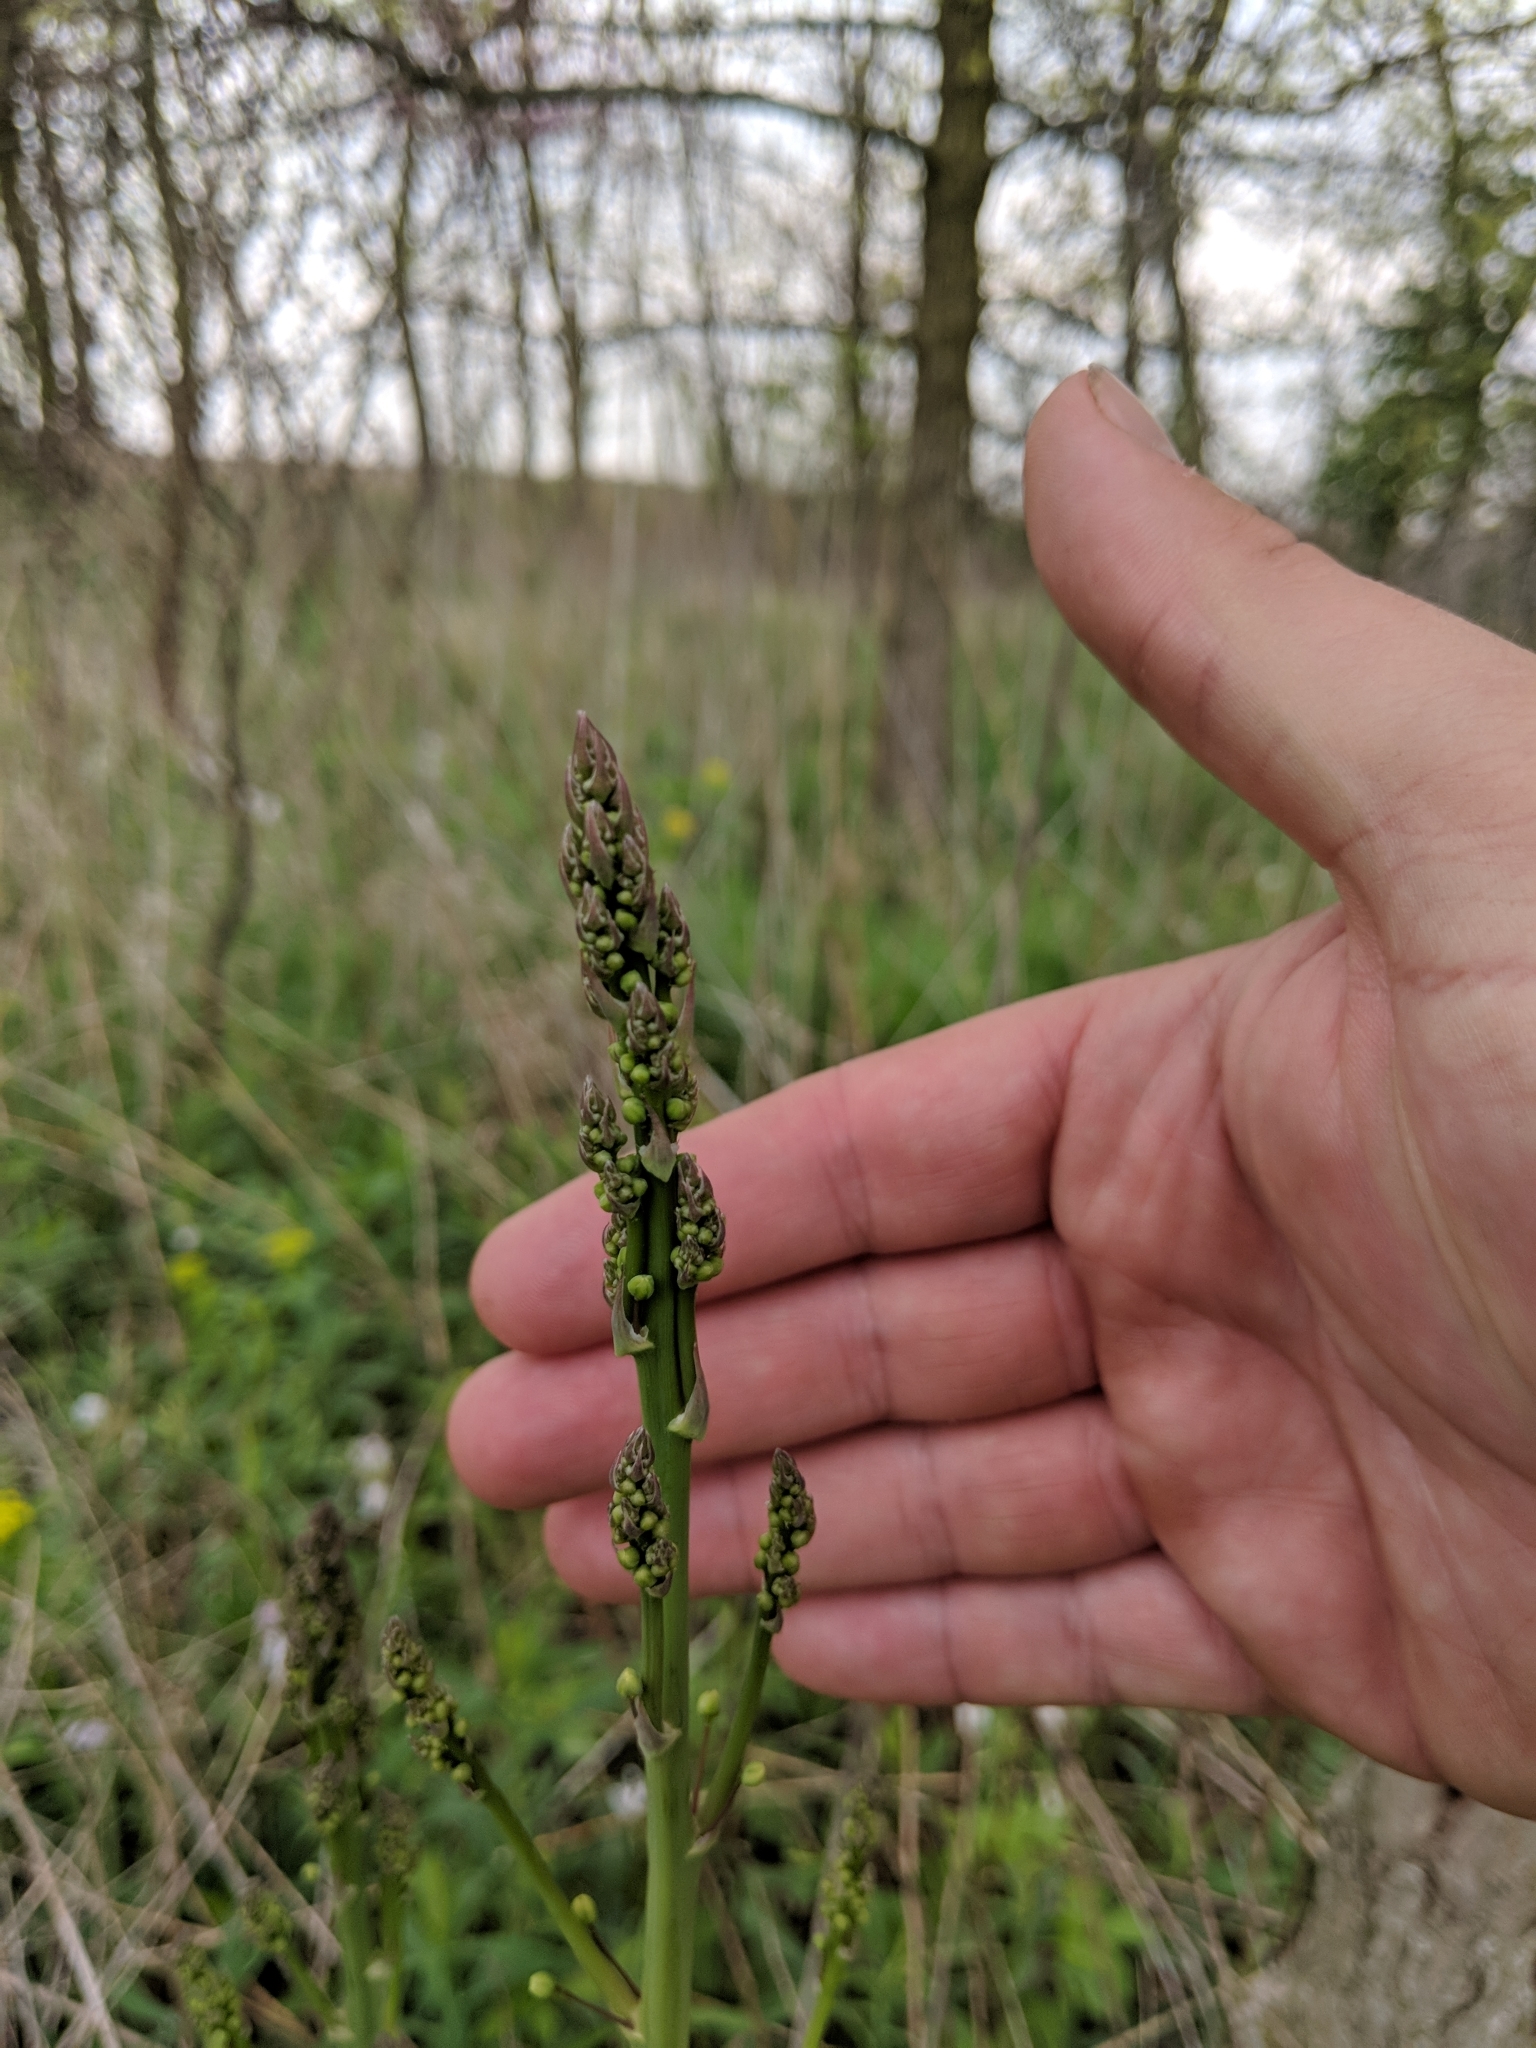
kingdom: Plantae
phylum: Tracheophyta
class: Liliopsida
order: Asparagales
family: Asparagaceae
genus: Asparagus
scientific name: Asparagus officinalis
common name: Garden asparagus
